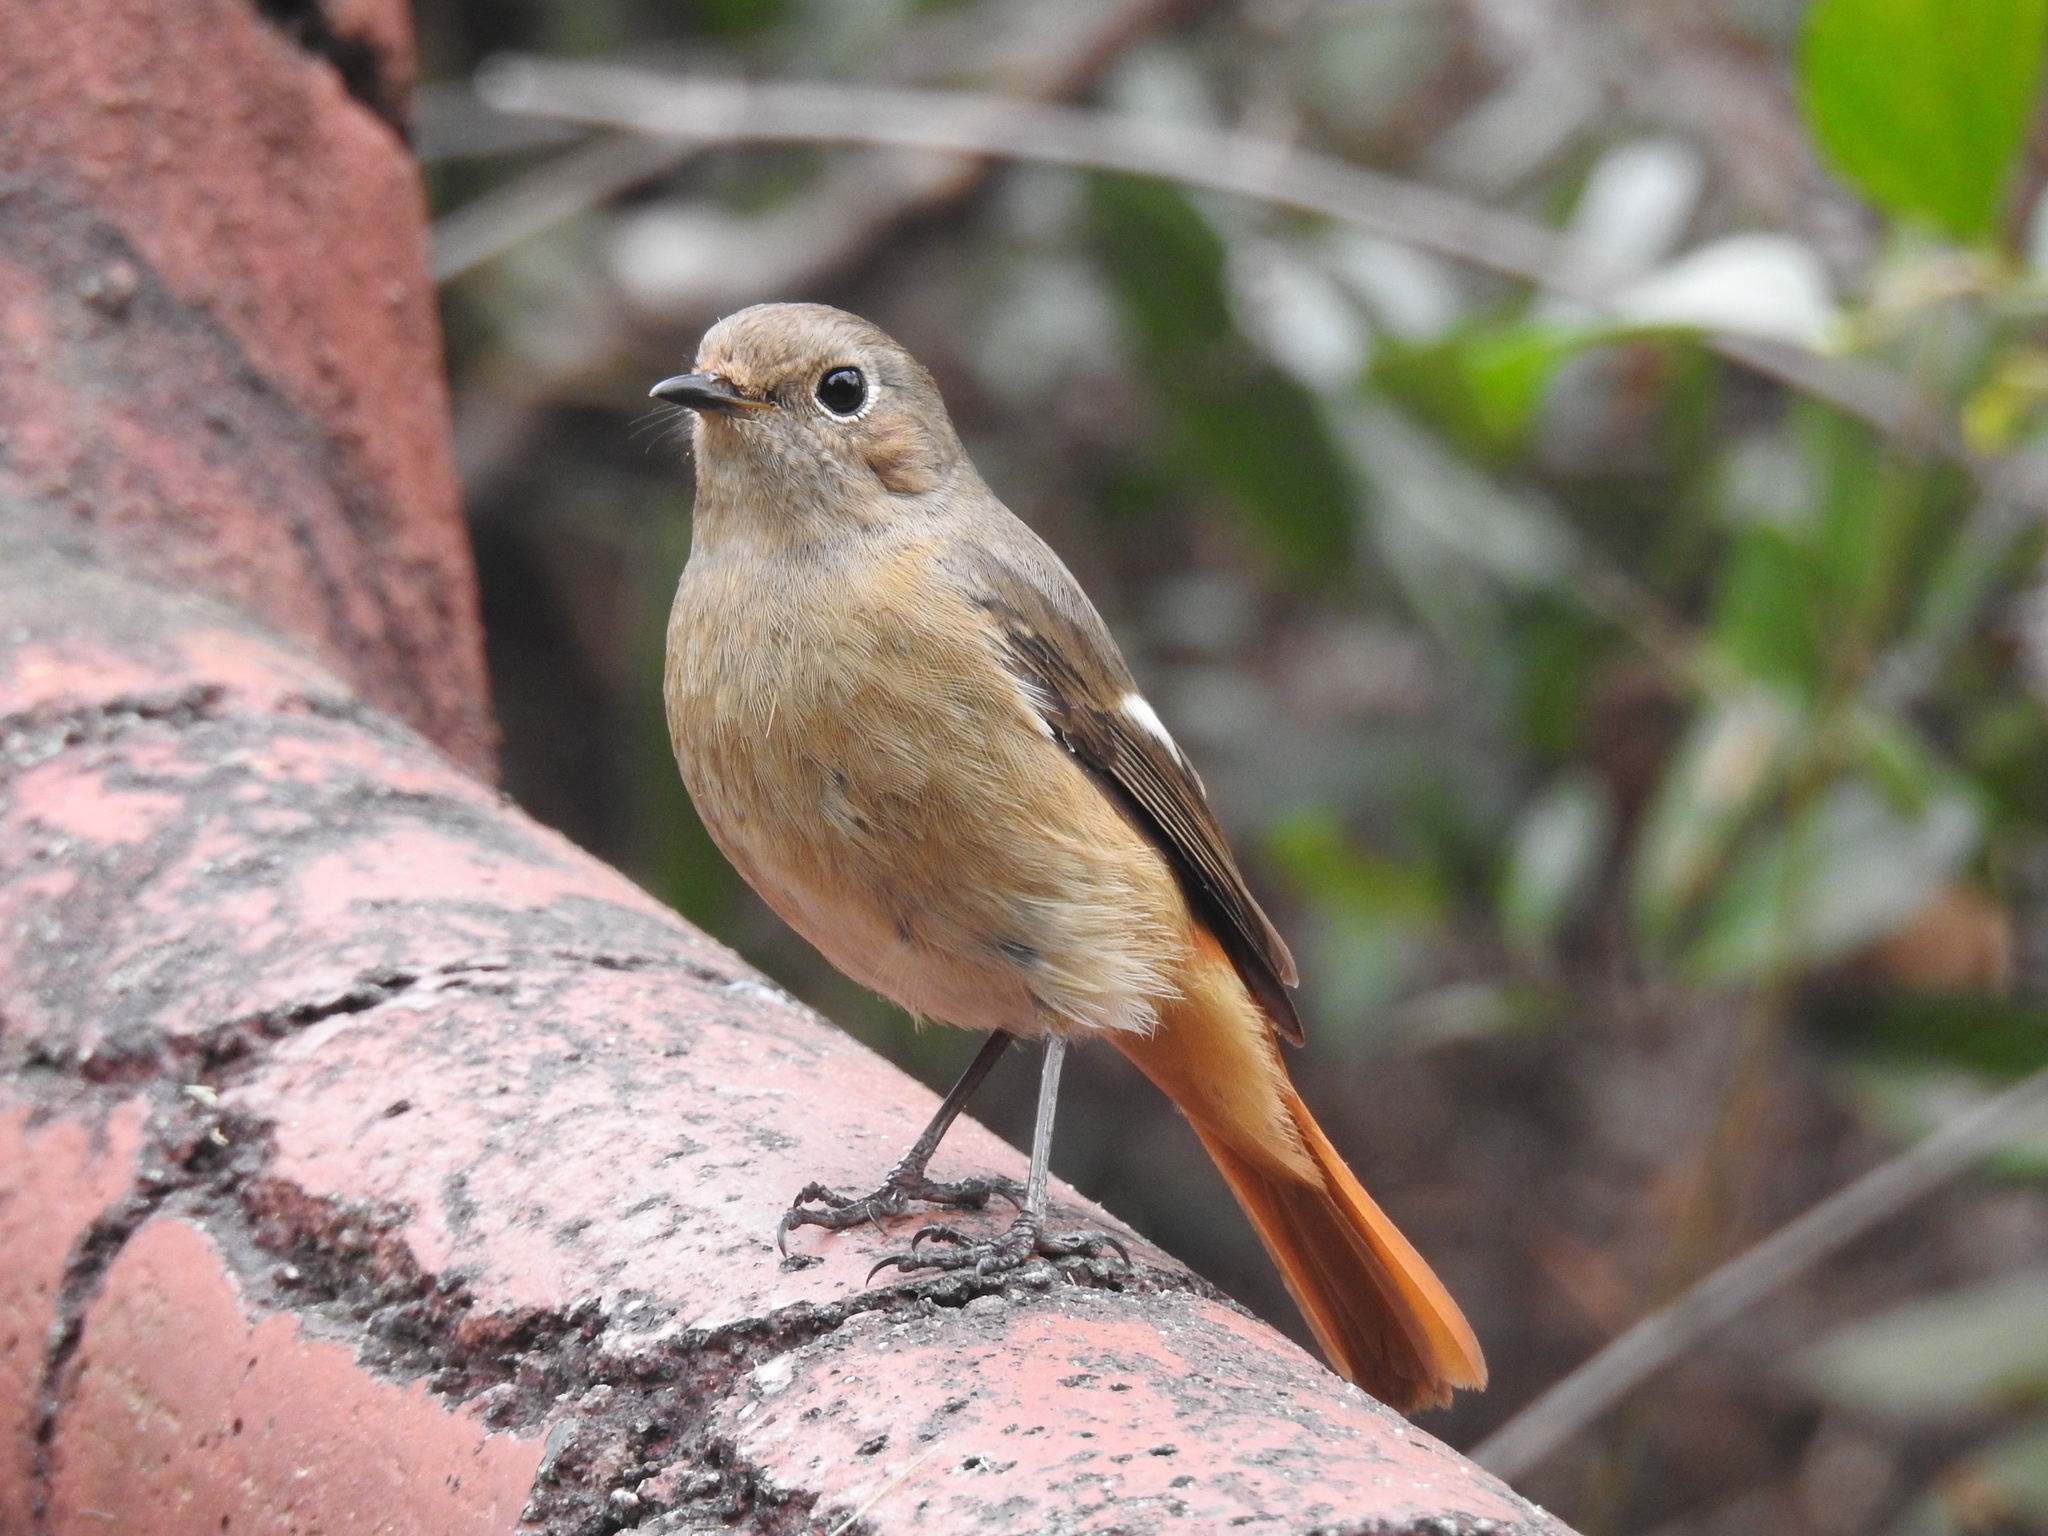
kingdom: Animalia
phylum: Chordata
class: Aves
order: Passeriformes
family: Muscicapidae
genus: Phoenicurus
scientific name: Phoenicurus auroreus
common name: Daurian redstart
